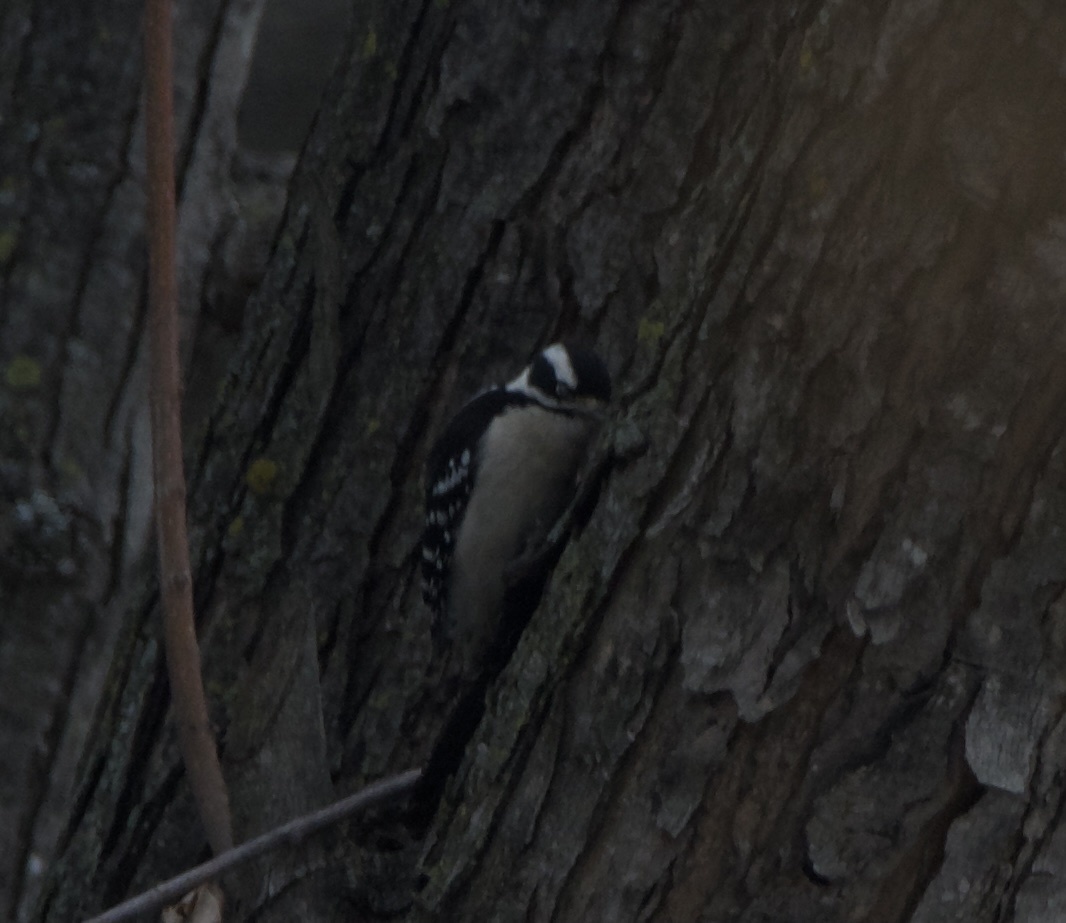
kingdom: Animalia
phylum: Chordata
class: Aves
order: Piciformes
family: Picidae
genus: Dryobates
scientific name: Dryobates pubescens
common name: Downy woodpecker
